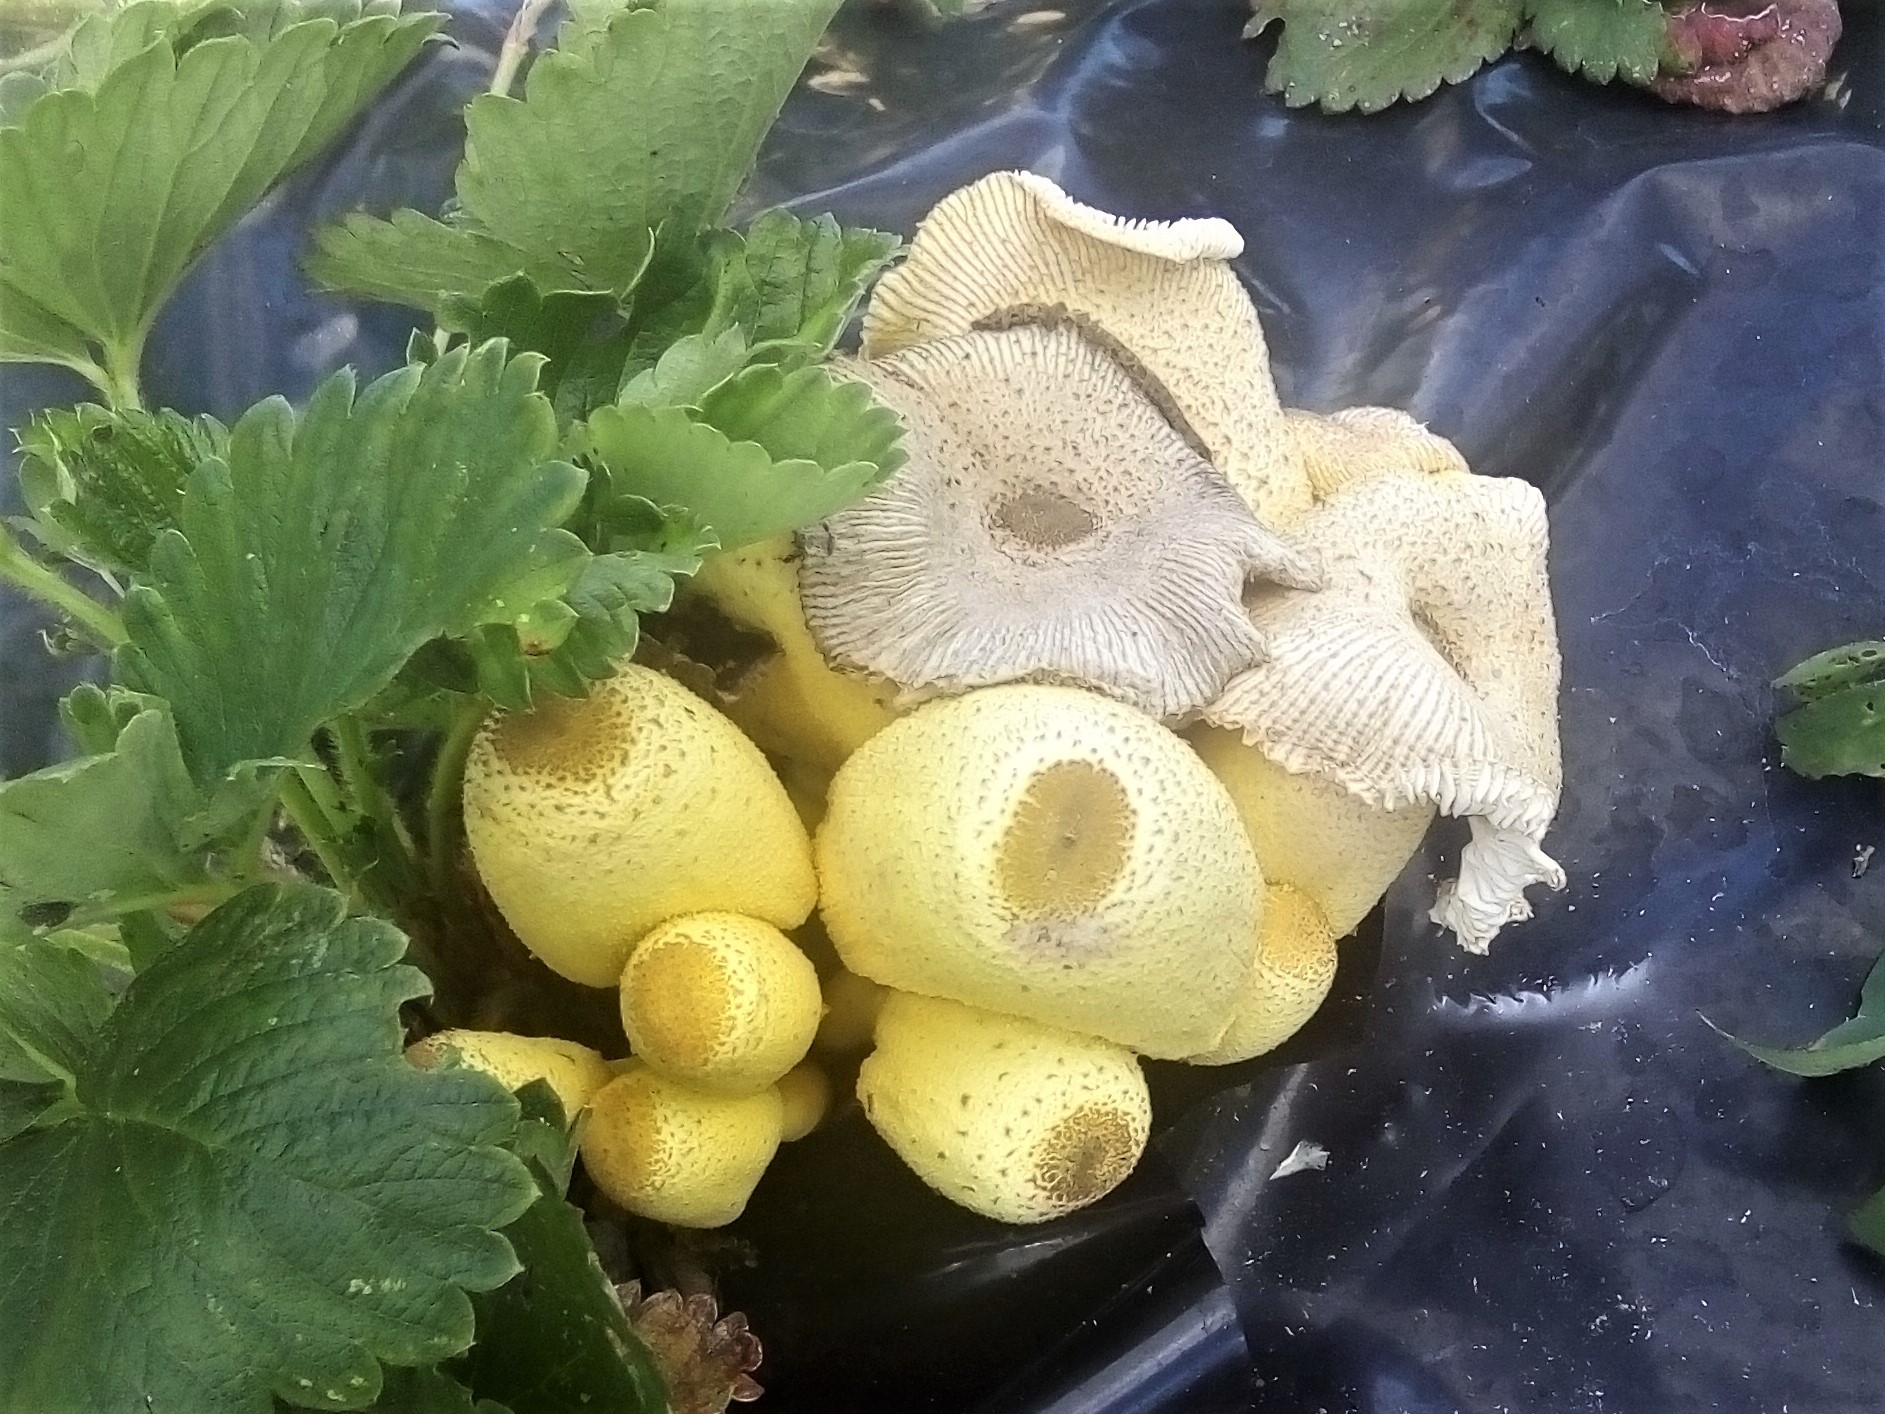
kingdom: Fungi
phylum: Basidiomycota
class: Agaricomycetes
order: Agaricales
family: Agaricaceae
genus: Leucocoprinus
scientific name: Leucocoprinus birnbaumii
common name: Plantpot dapperling
